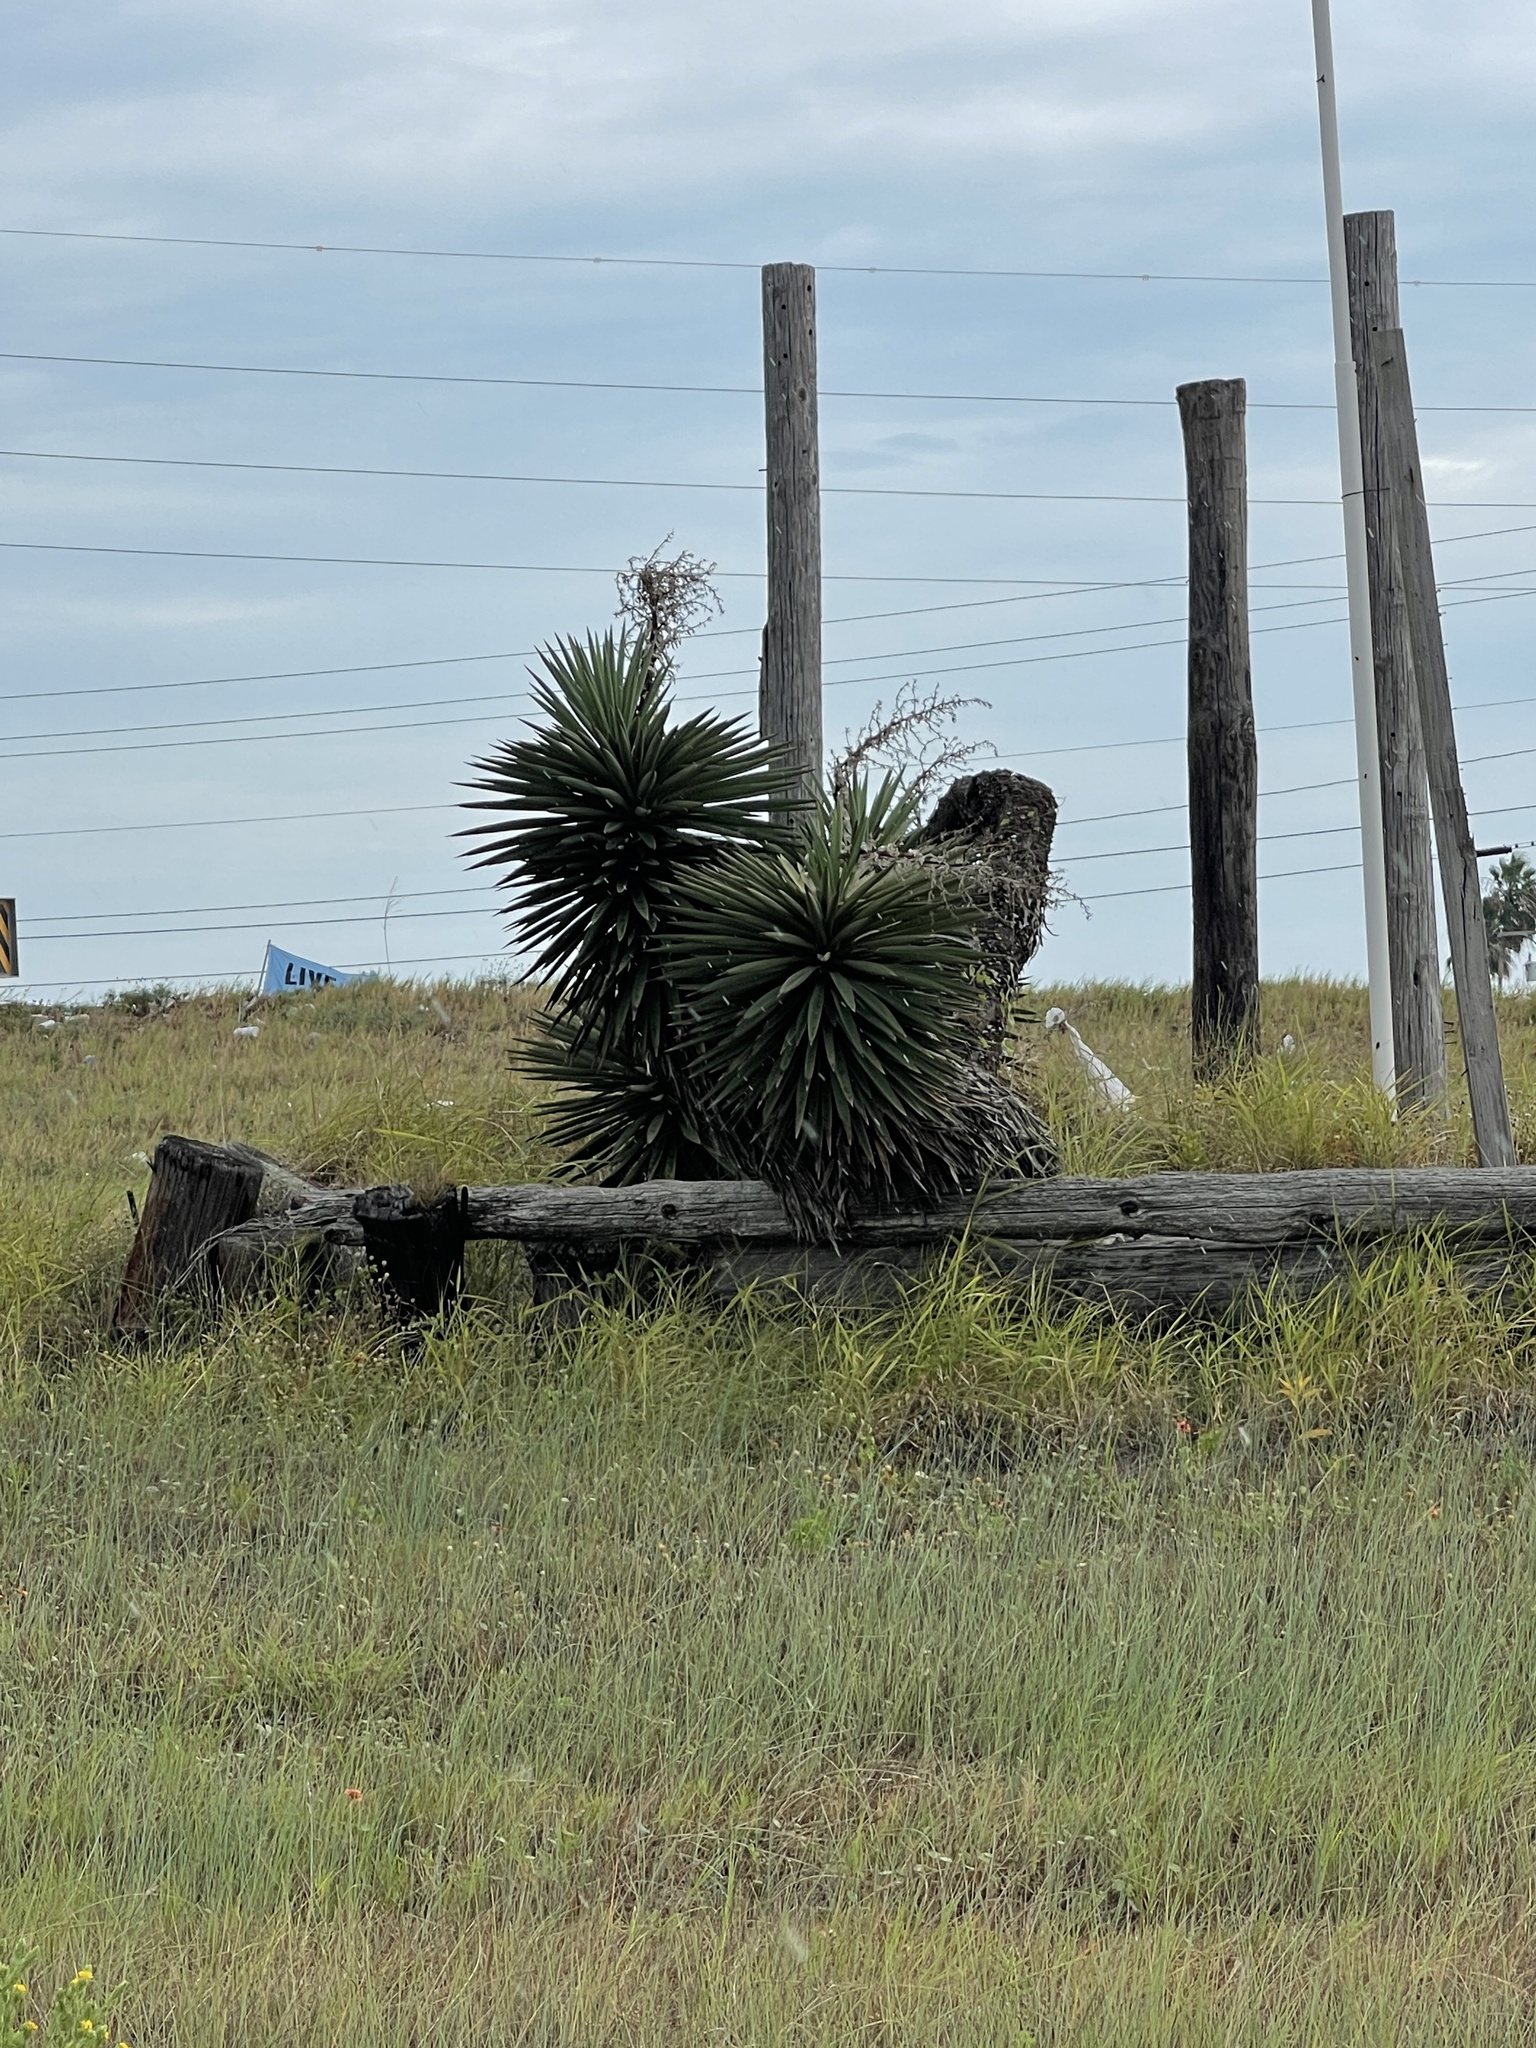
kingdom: Plantae
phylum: Tracheophyta
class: Liliopsida
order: Asparagales
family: Asparagaceae
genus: Yucca
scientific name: Yucca treculiana
